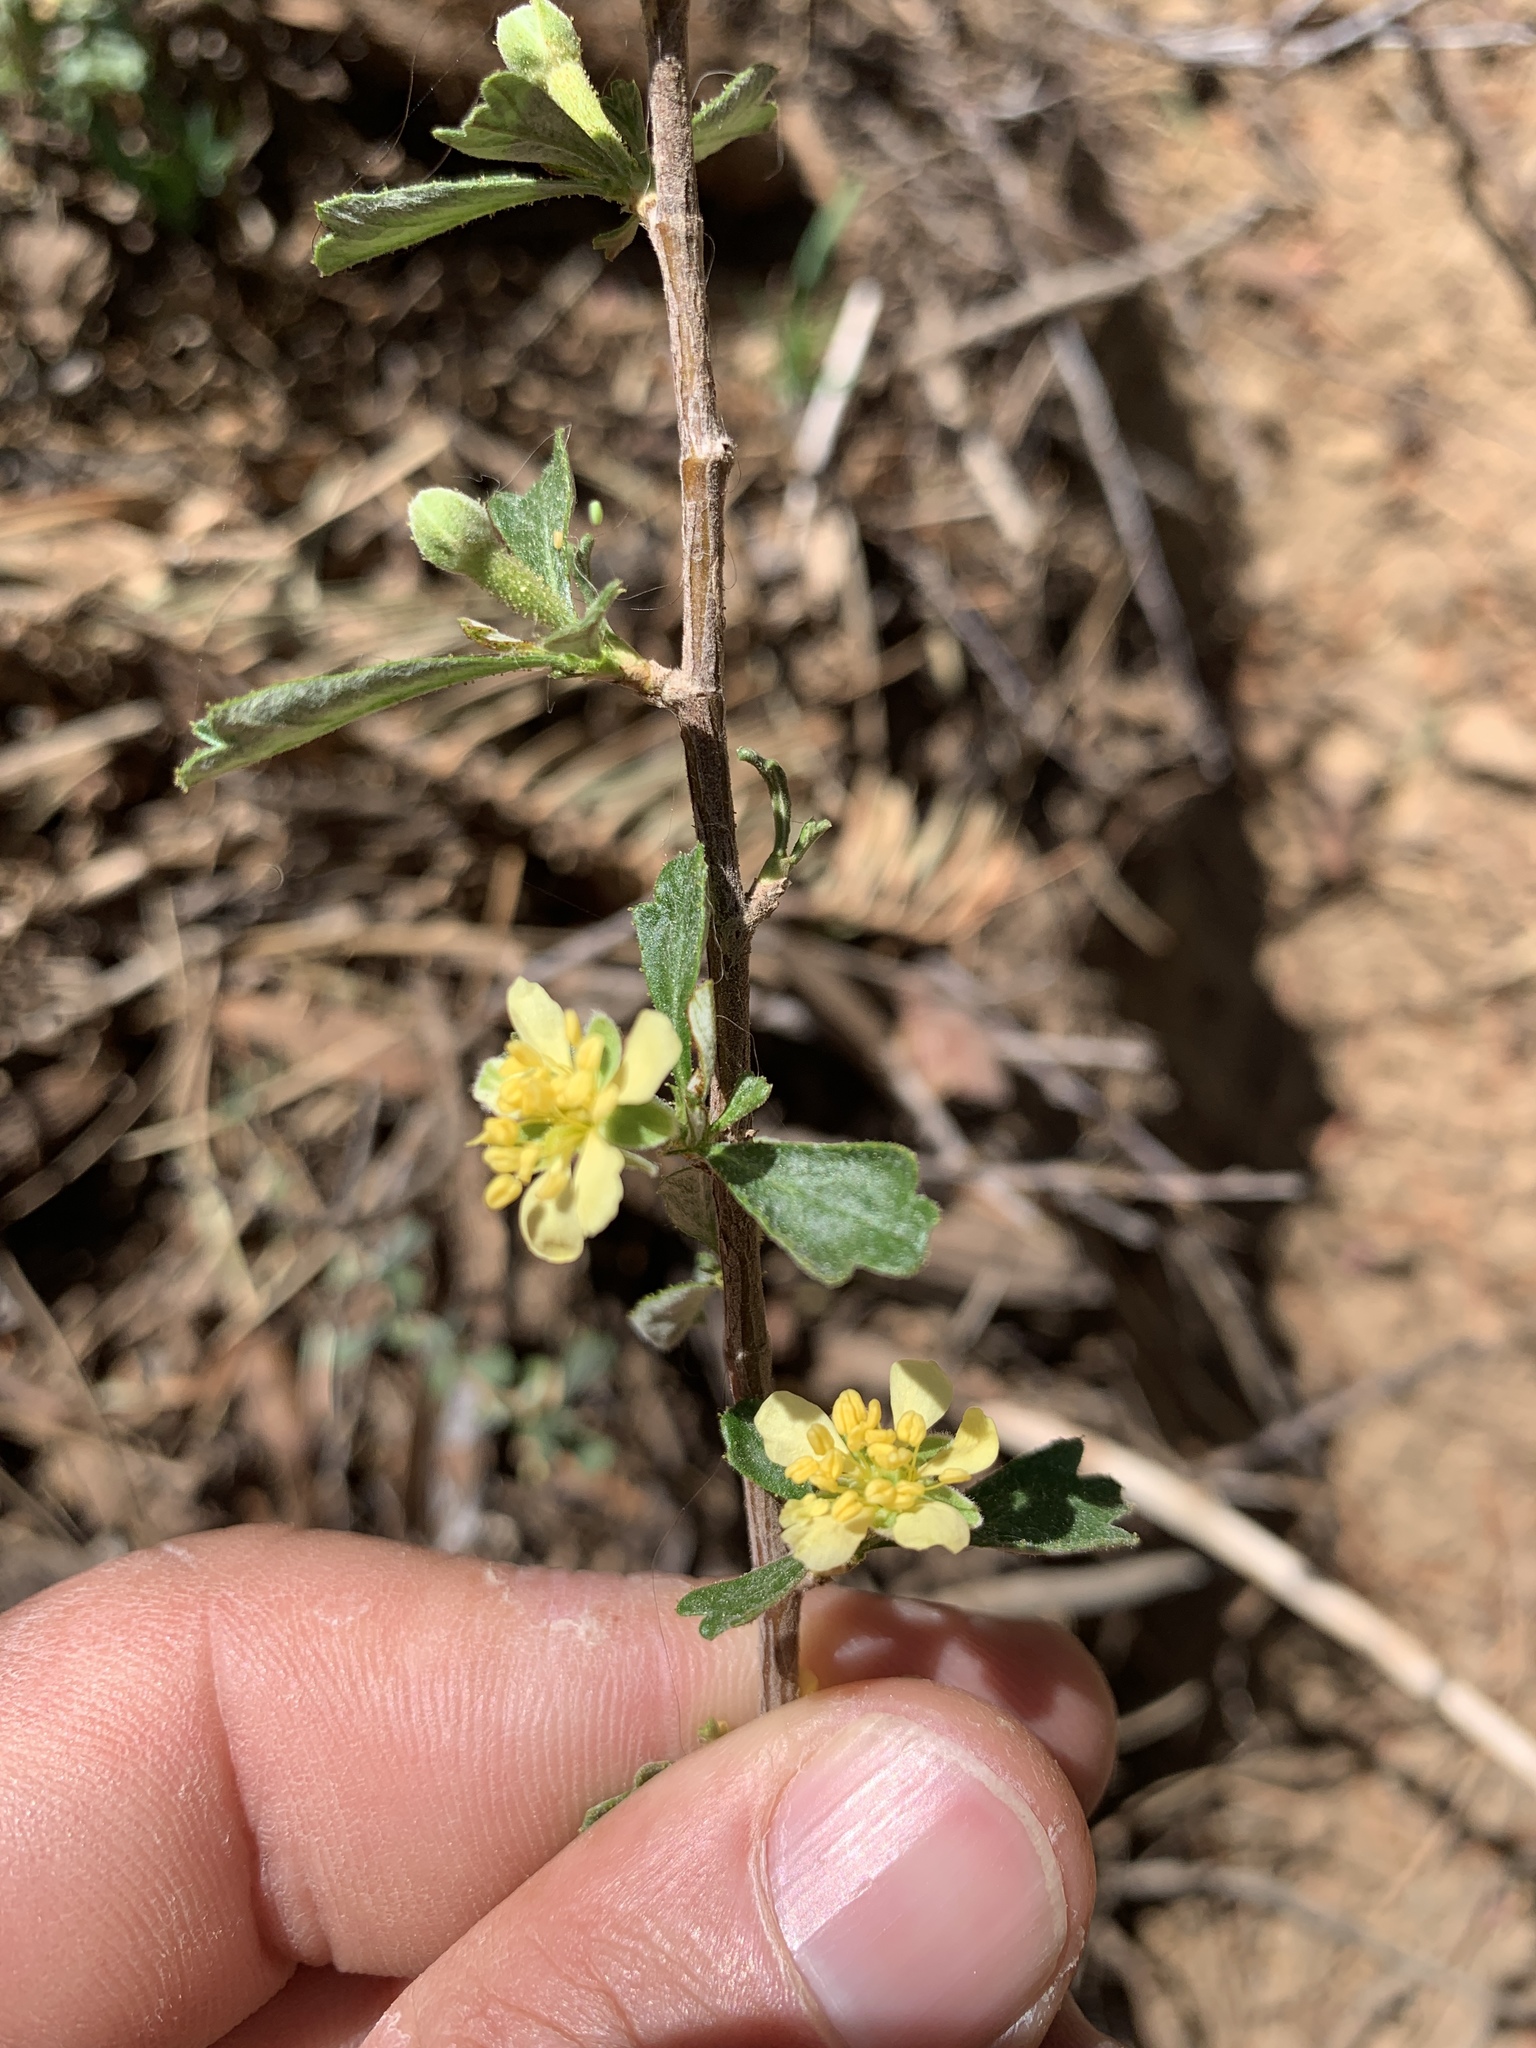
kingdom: Plantae
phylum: Tracheophyta
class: Magnoliopsida
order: Rosales
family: Rosaceae
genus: Purshia
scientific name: Purshia tridentata
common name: Antelope bitterbrush
